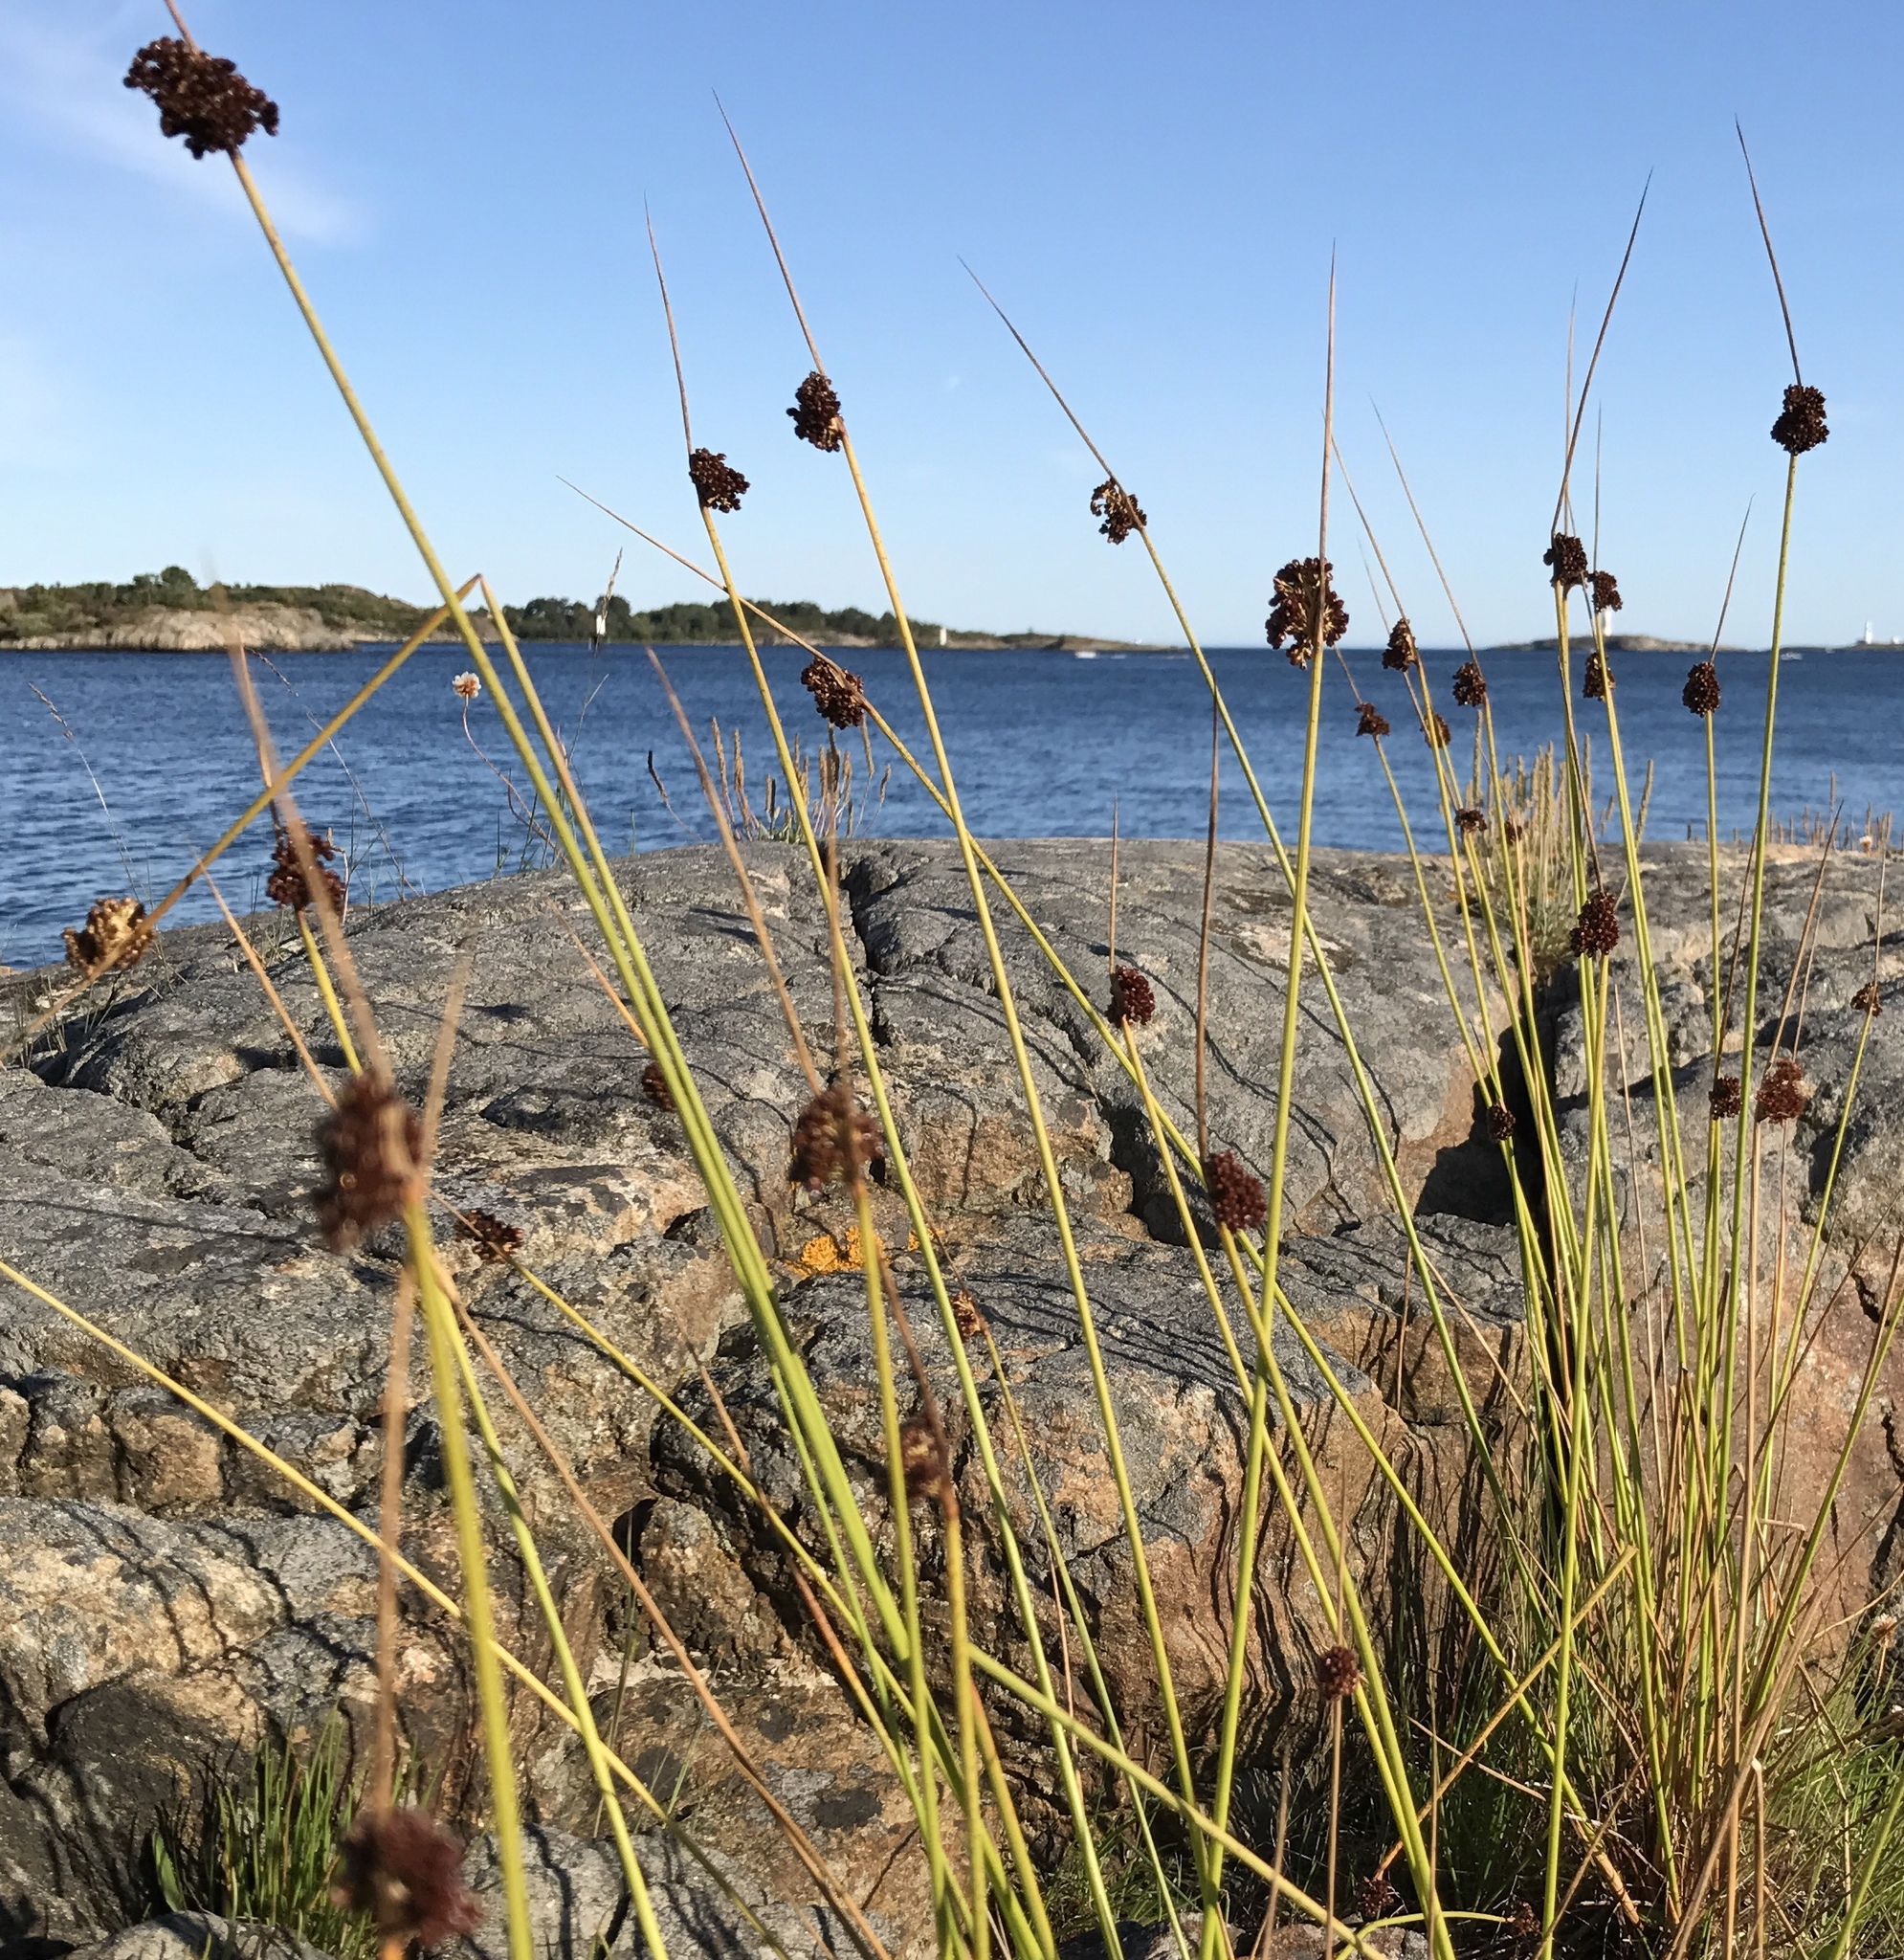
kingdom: Plantae
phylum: Tracheophyta
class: Liliopsida
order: Poales
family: Juncaceae
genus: Juncus
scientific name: Juncus conglomeratus
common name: Compact rush
